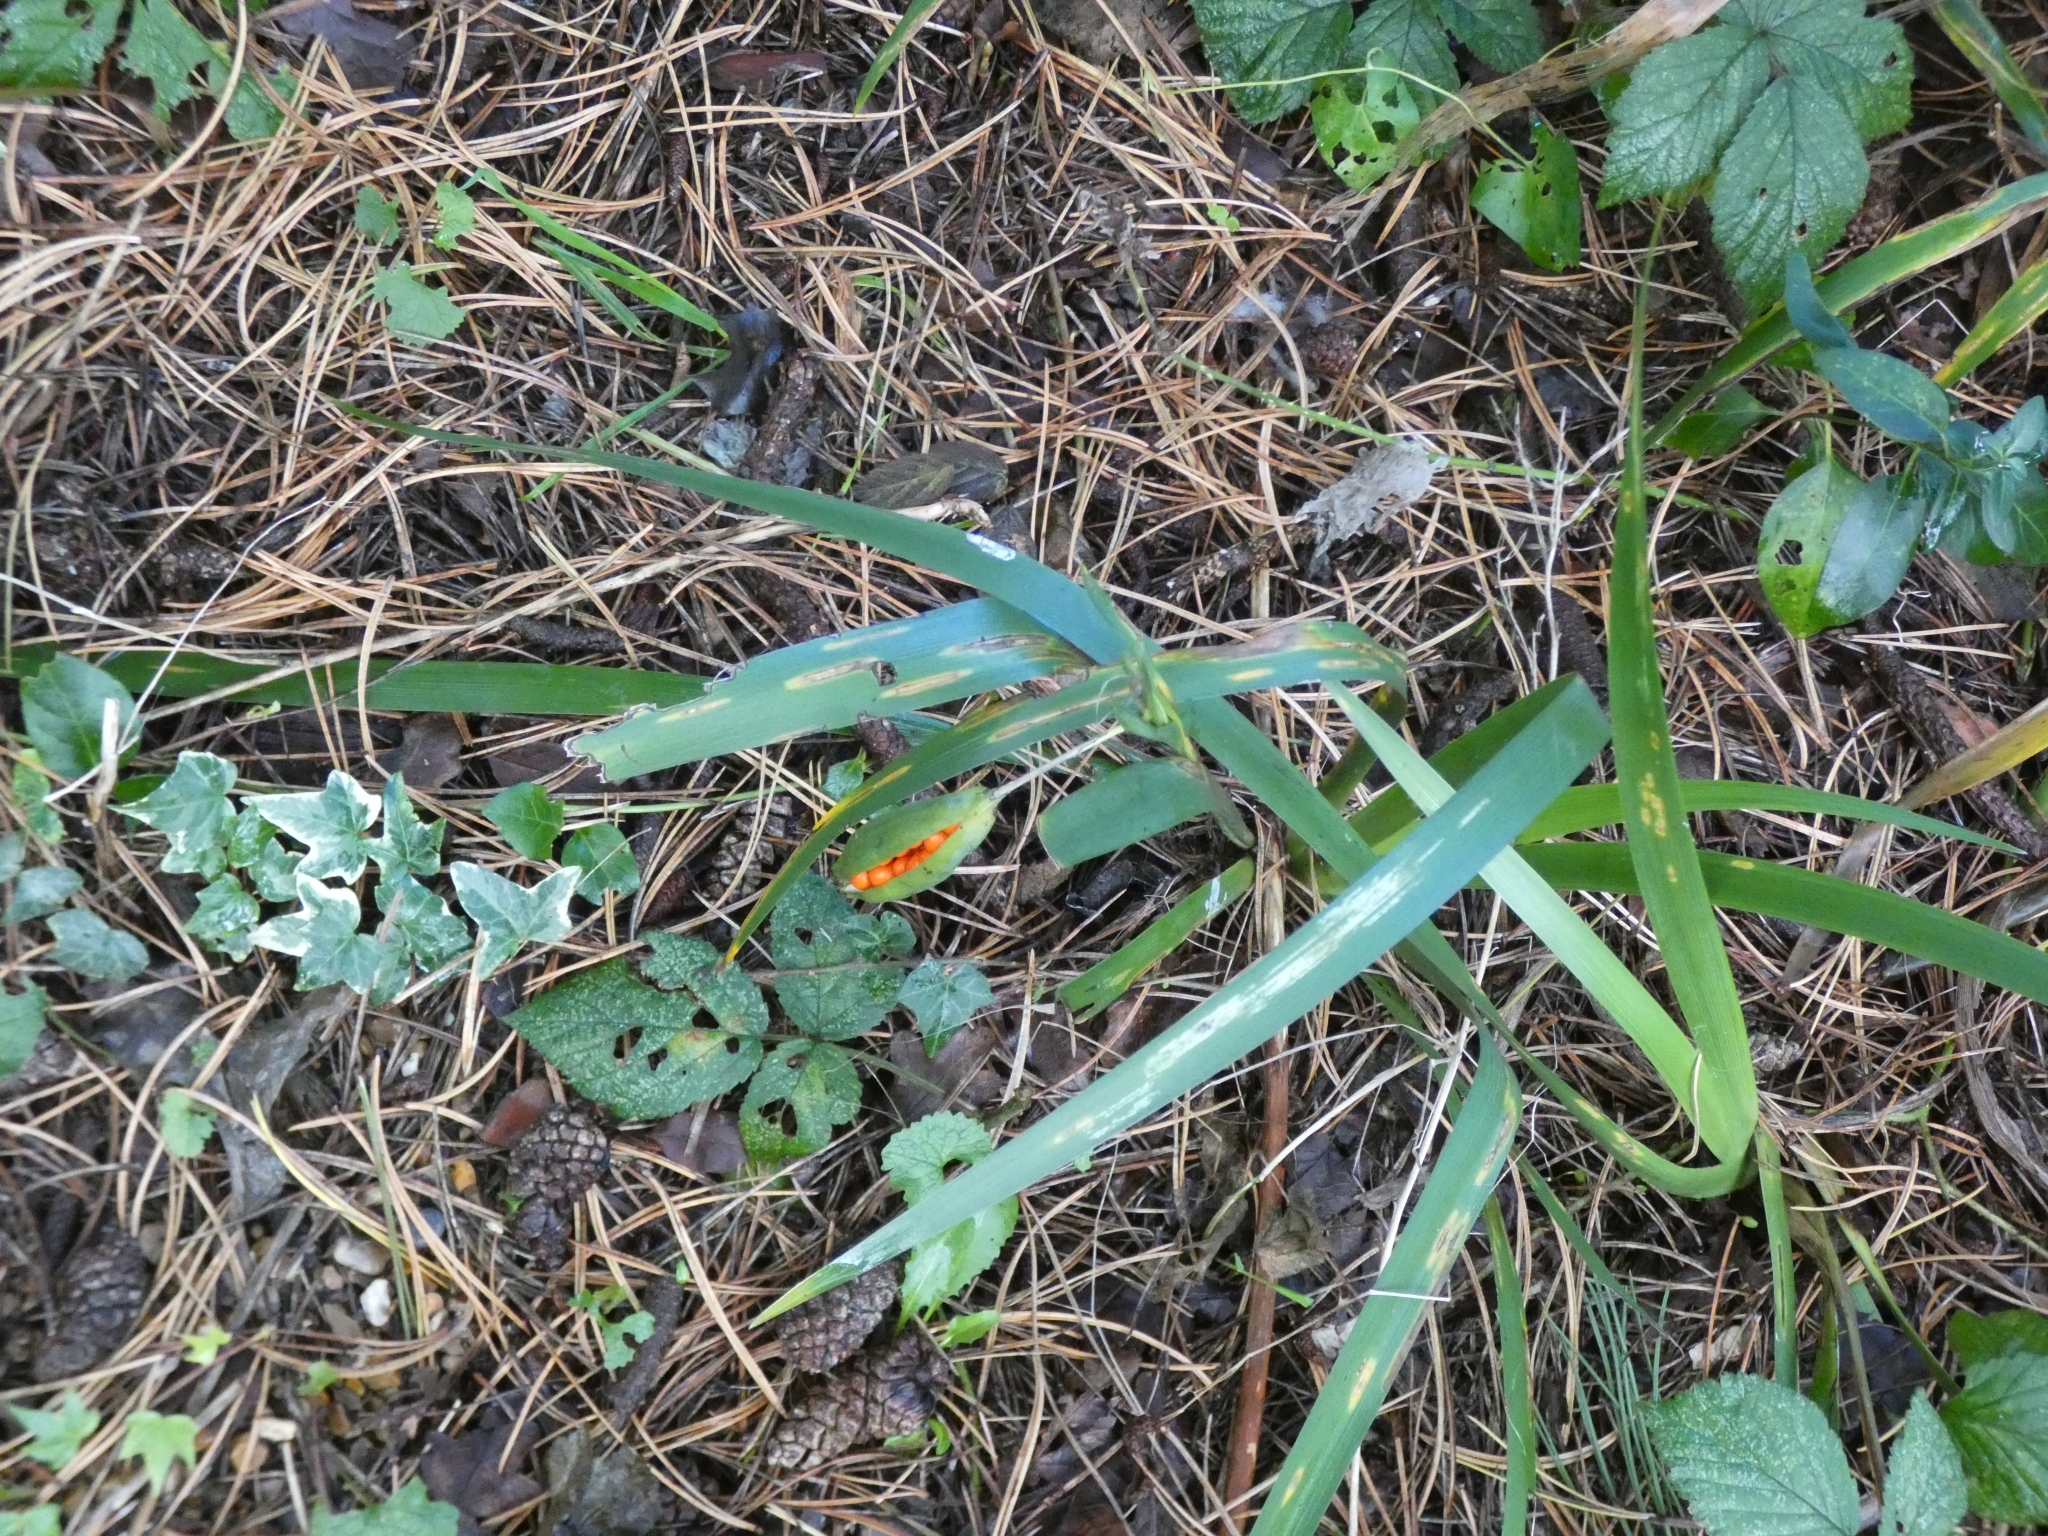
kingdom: Plantae
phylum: Tracheophyta
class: Liliopsida
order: Asparagales
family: Iridaceae
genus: Iris
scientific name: Iris foetidissima
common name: Stinking iris
